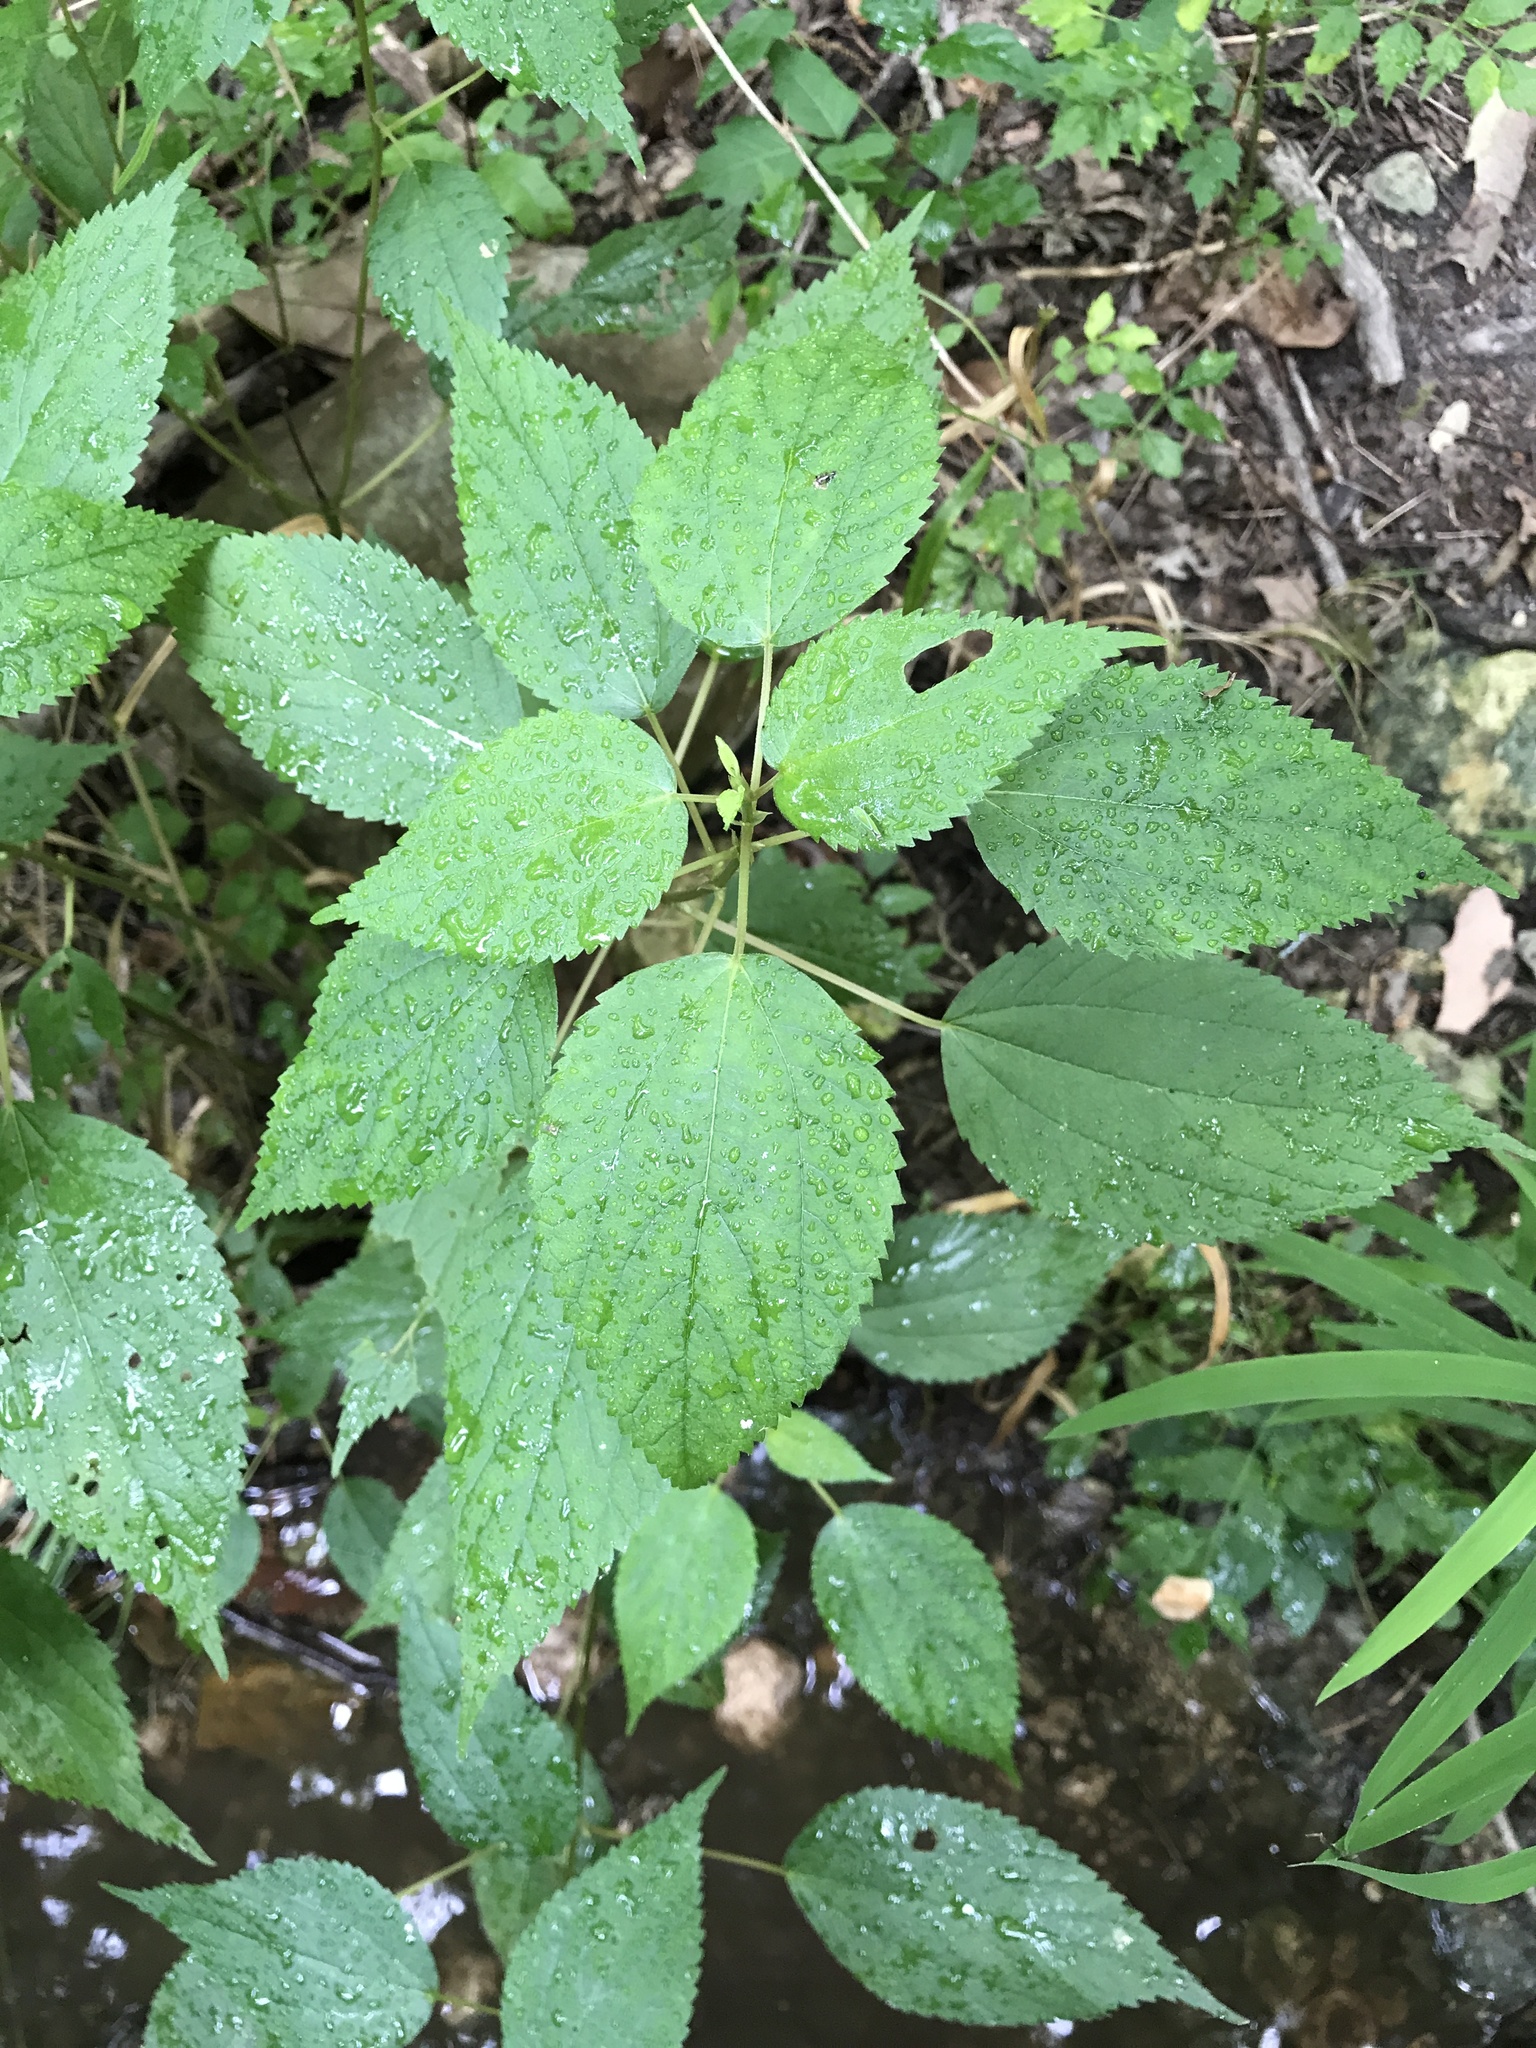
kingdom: Plantae
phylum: Tracheophyta
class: Magnoliopsida
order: Rosales
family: Urticaceae
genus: Boehmeria
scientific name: Boehmeria cylindrica
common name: Bog-hemp
